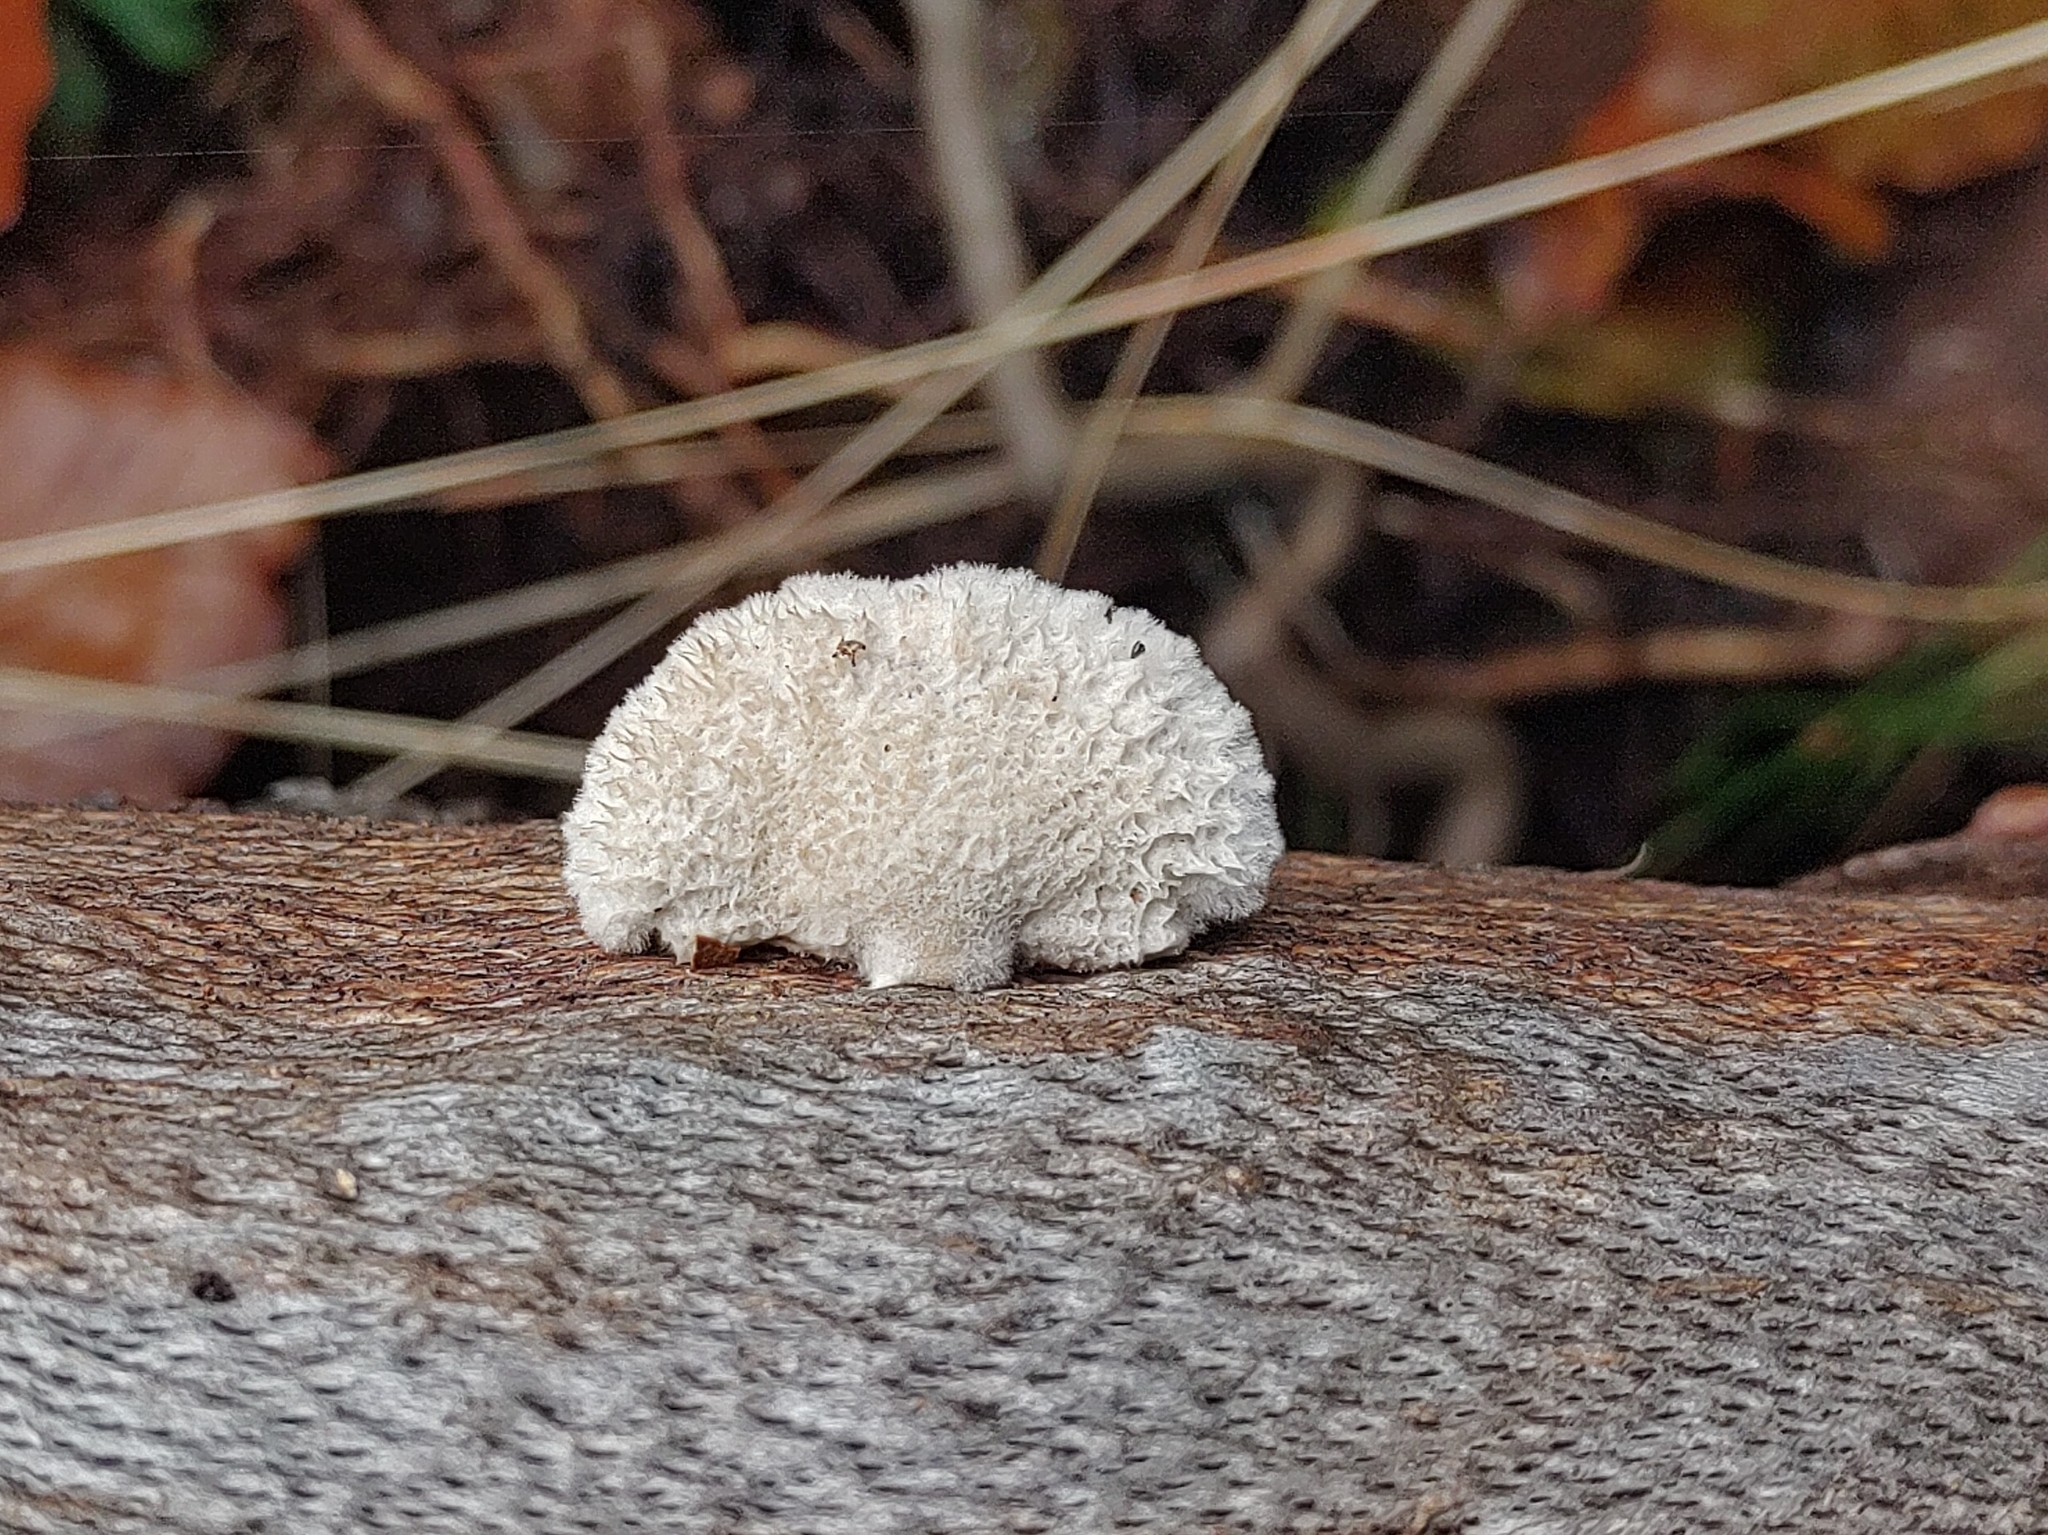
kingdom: Fungi
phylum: Basidiomycota
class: Agaricomycetes
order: Agaricales
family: Schizophyllaceae
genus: Schizophyllum
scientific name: Schizophyllum commune
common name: Common porecrust
